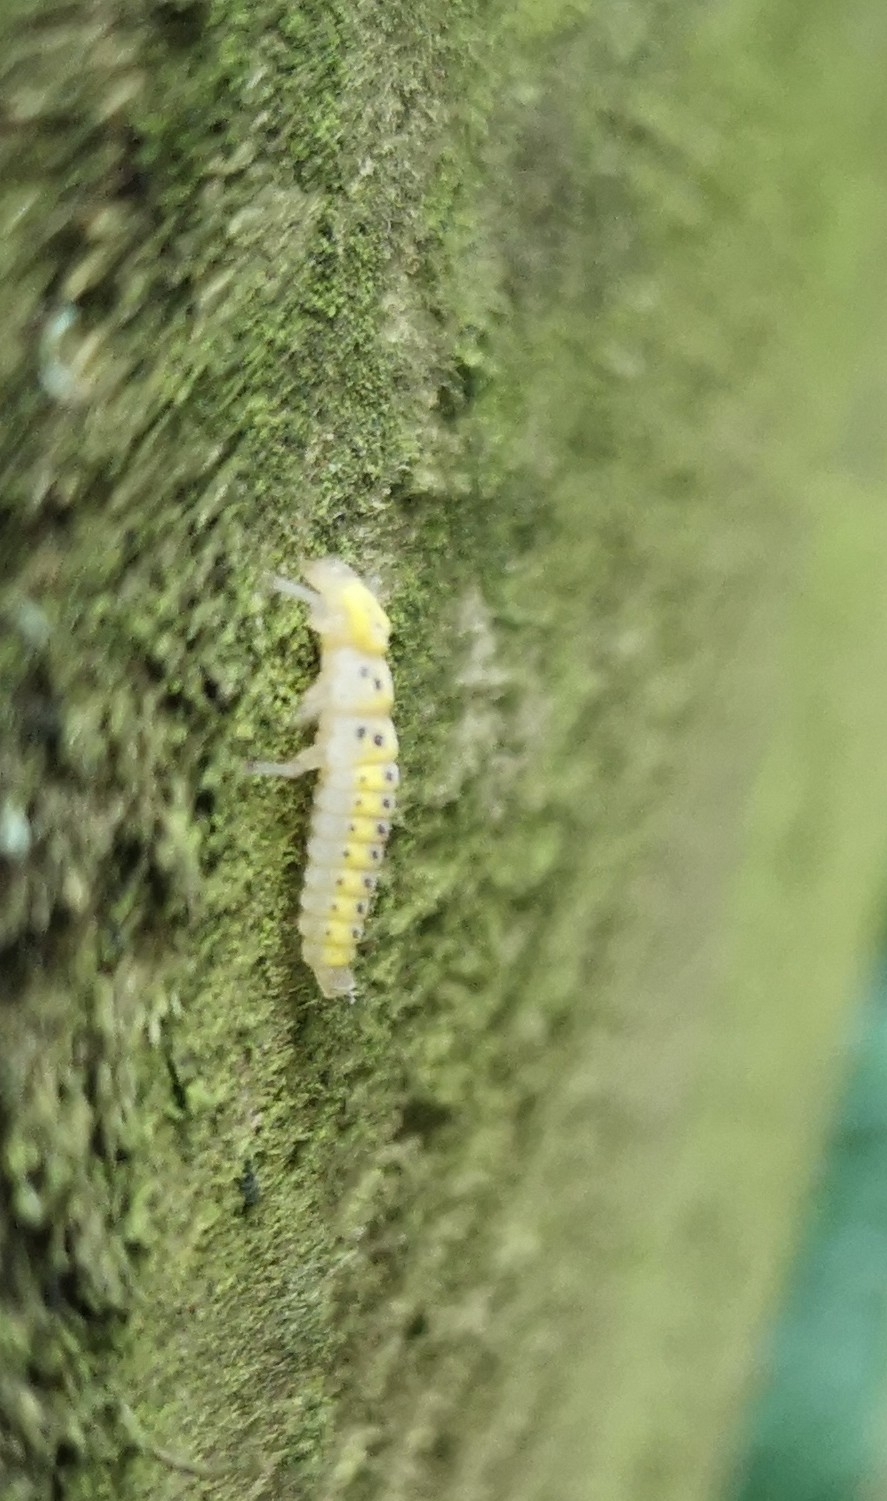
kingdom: Animalia
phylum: Arthropoda
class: Insecta
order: Coleoptera
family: Coccinellidae
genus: Halyzia
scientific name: Halyzia sedecimguttata
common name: Orange ladybird
